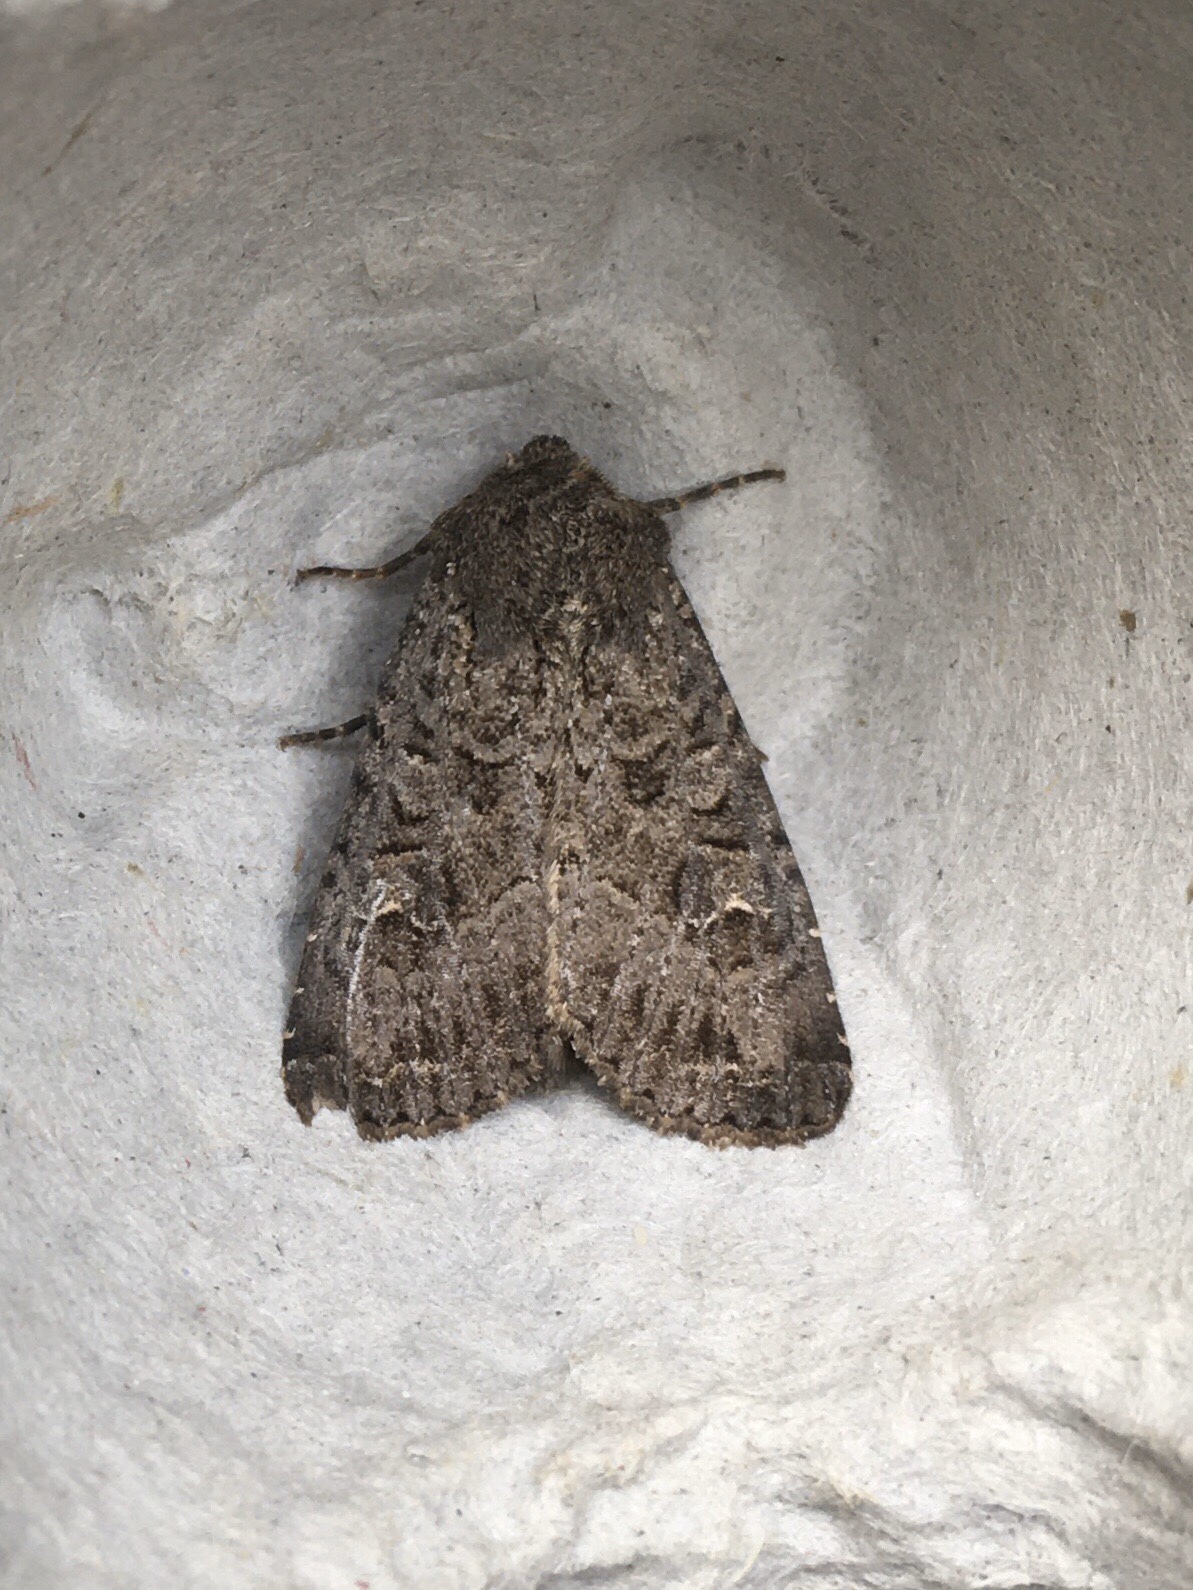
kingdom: Animalia
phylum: Arthropoda
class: Insecta
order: Lepidoptera
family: Noctuidae
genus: Apamea
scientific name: Apamea devastator
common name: Glassy cutworm
